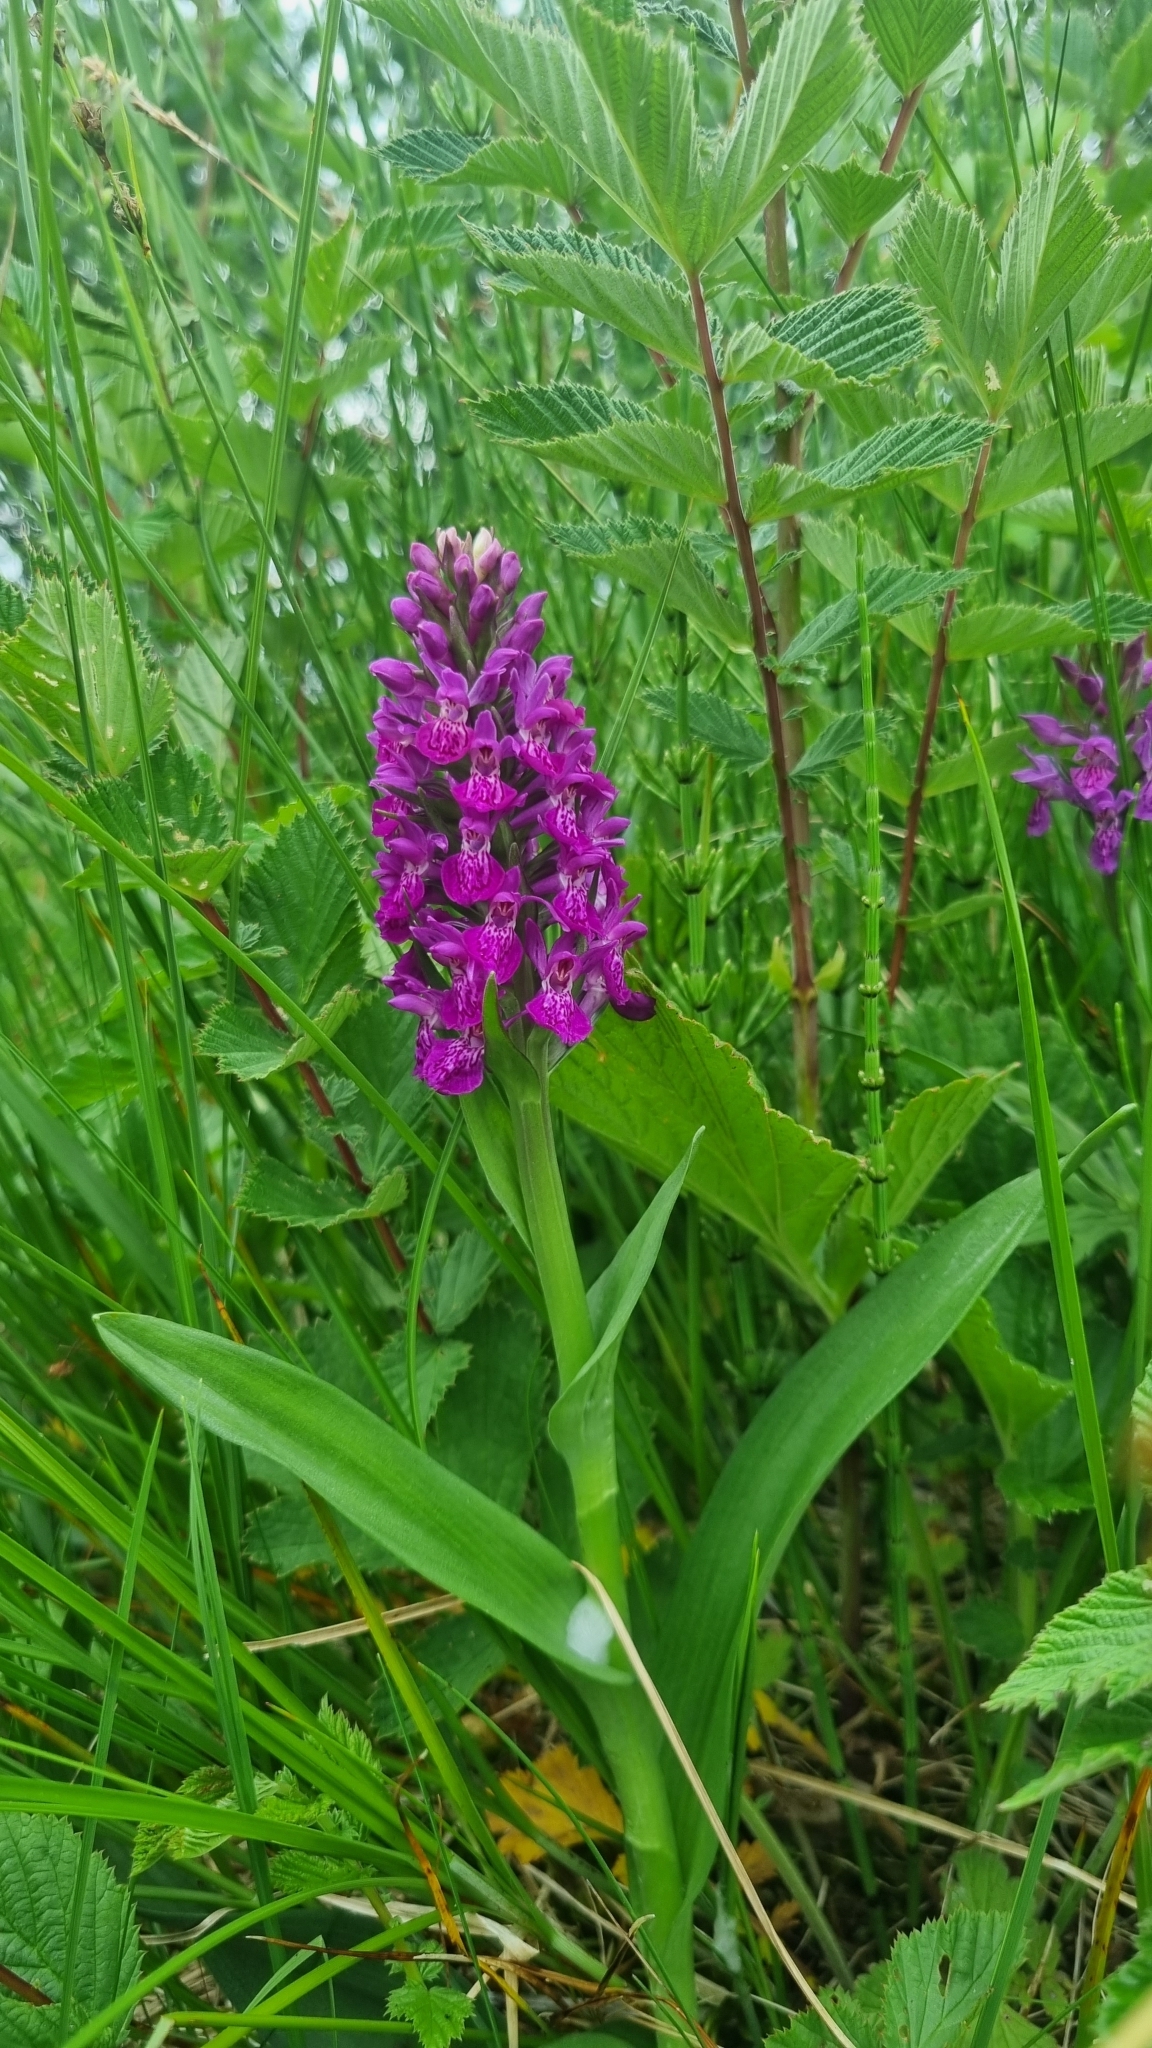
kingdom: Plantae
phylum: Tracheophyta
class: Liliopsida
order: Asparagales
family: Orchidaceae
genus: Dactylorhiza
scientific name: Dactylorhiza majalis
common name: Marsh orchid
